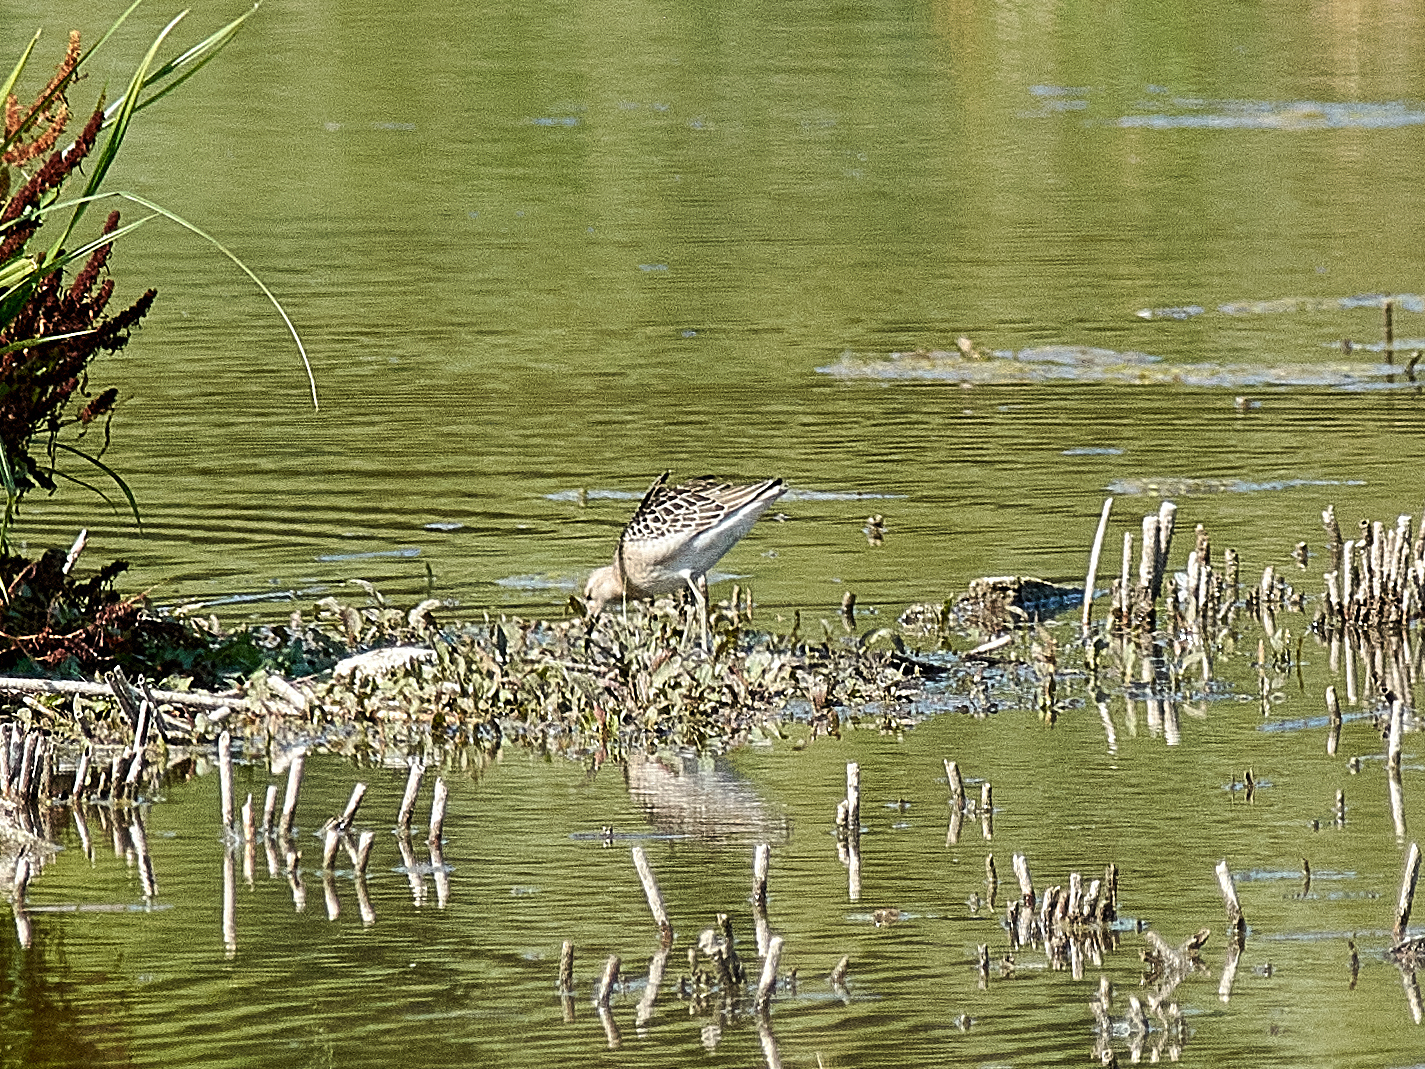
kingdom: Animalia
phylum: Chordata
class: Aves
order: Charadriiformes
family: Scolopacidae
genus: Calidris
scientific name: Calidris pugnax
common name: Ruff
